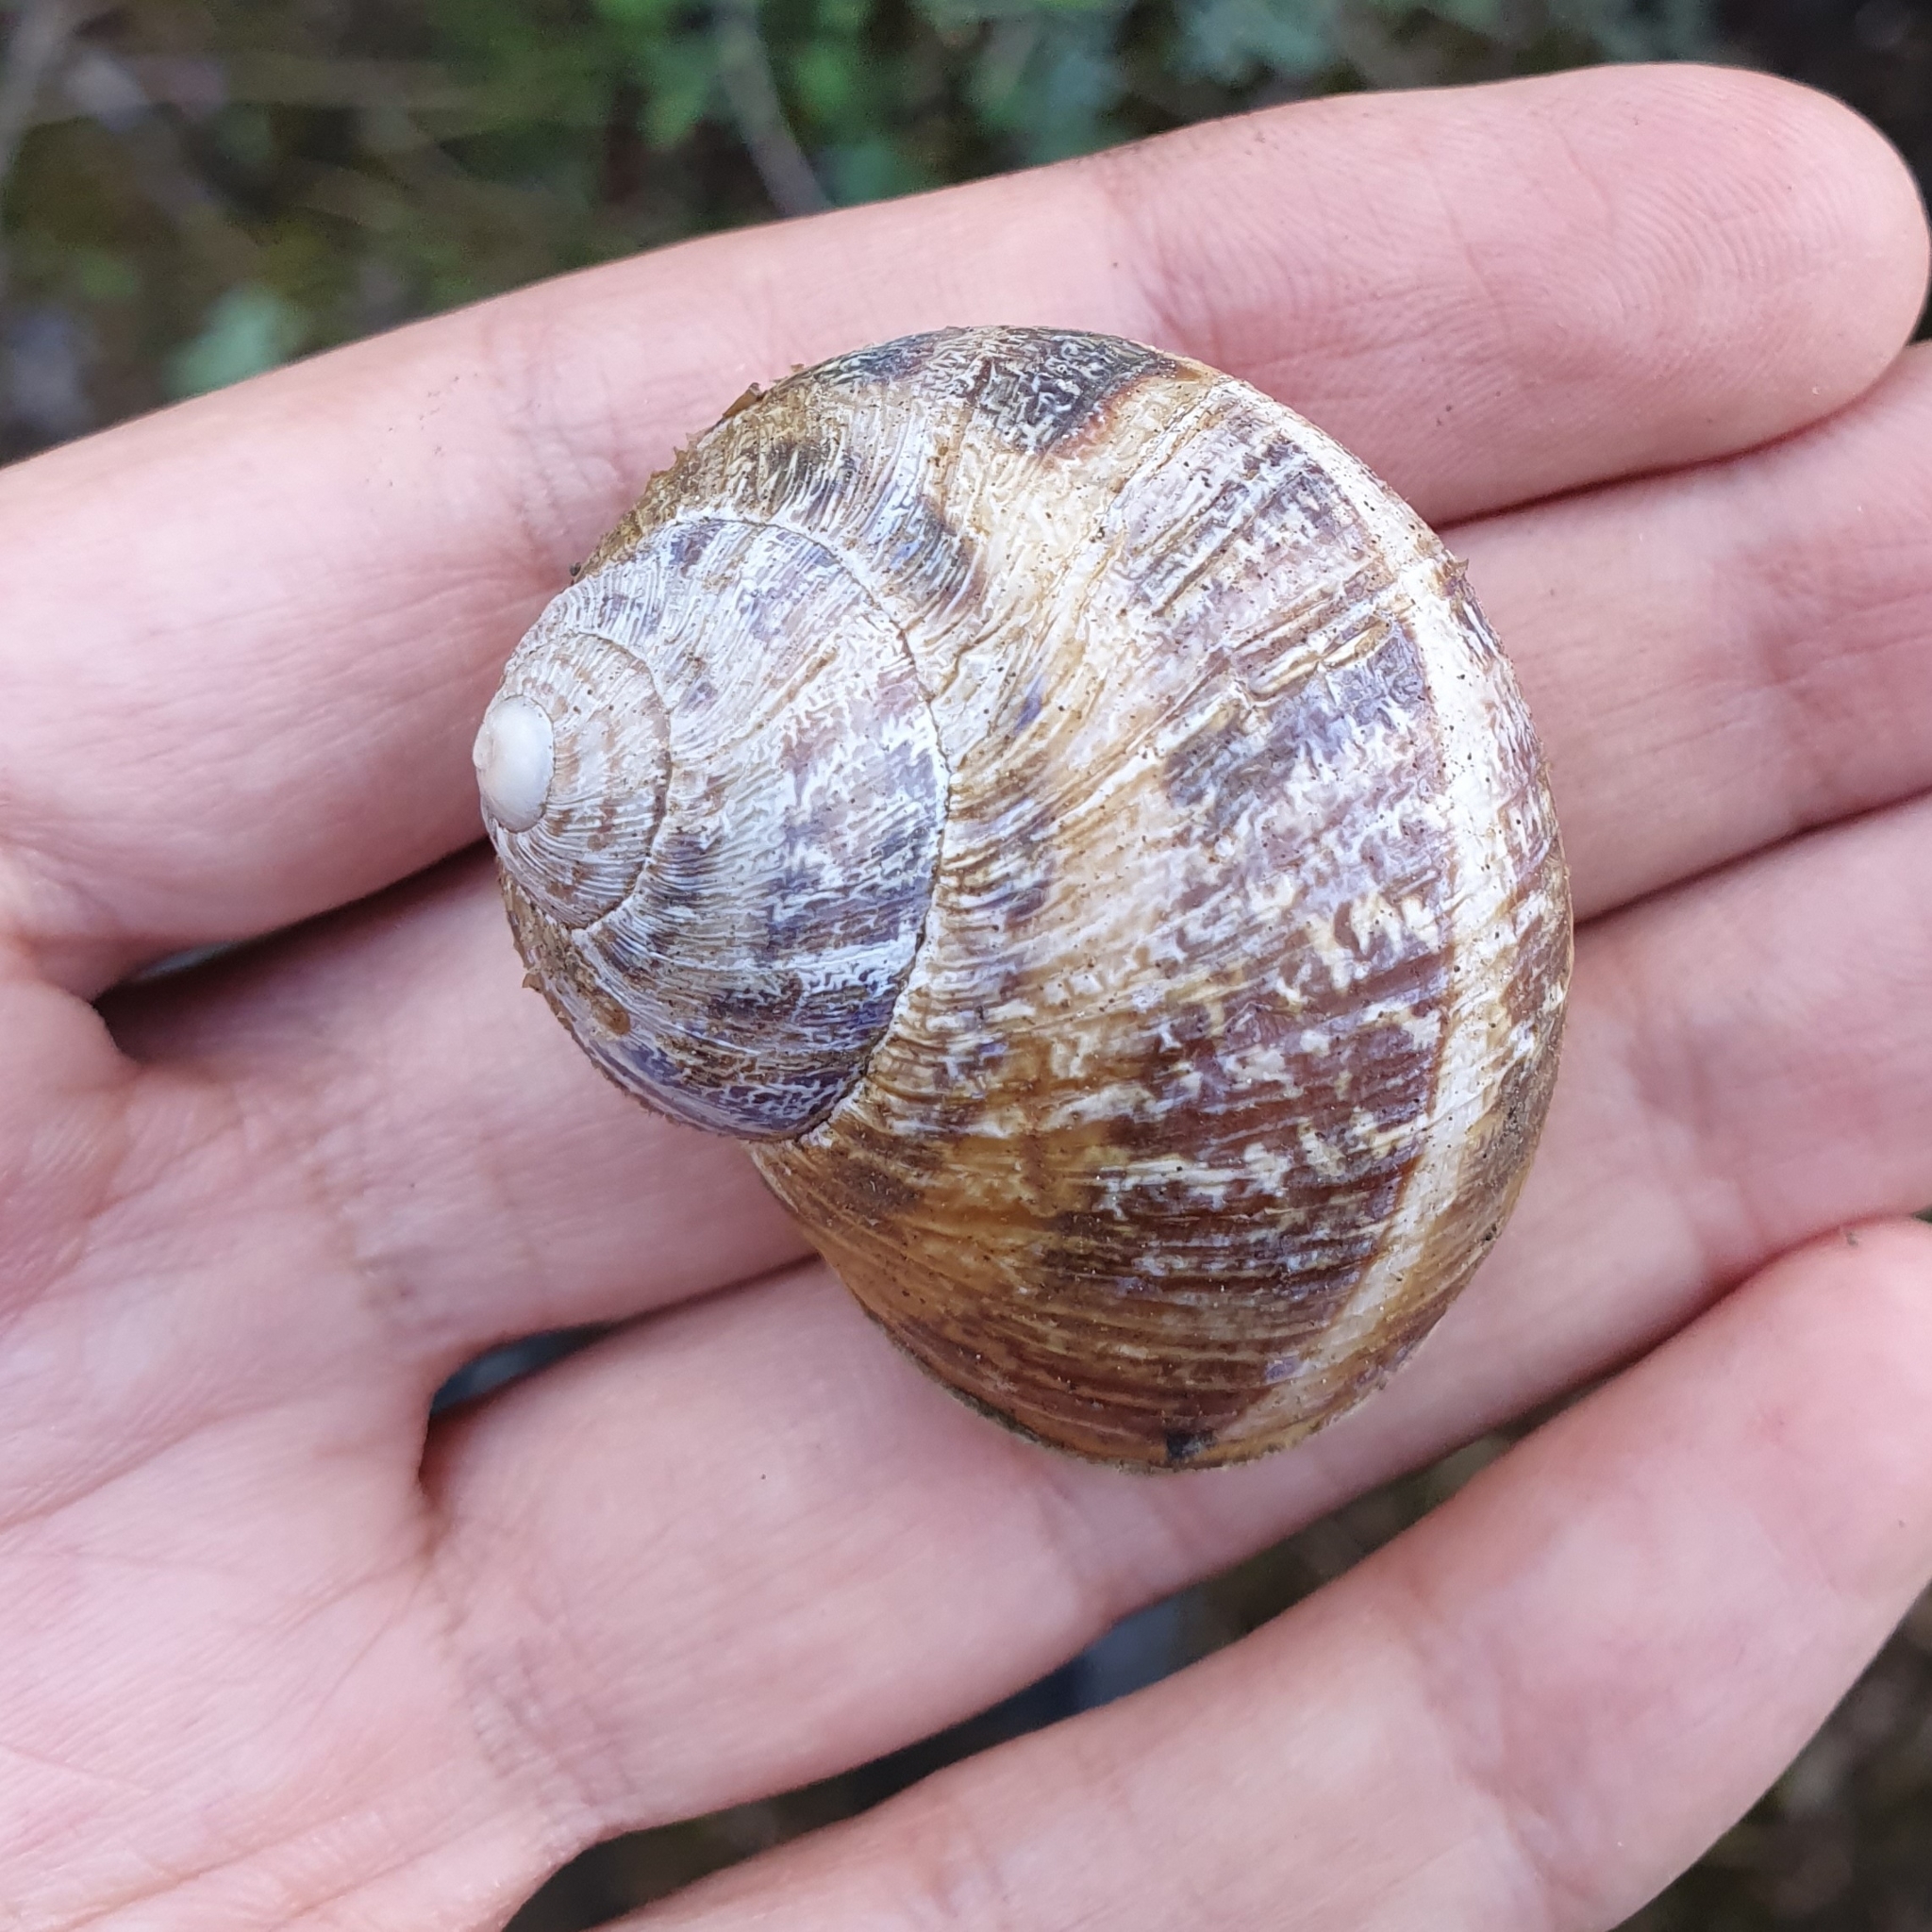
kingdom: Animalia
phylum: Mollusca
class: Gastropoda
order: Stylommatophora
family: Helicidae
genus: Cornu
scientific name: Cornu aspersum
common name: Brown garden snail
